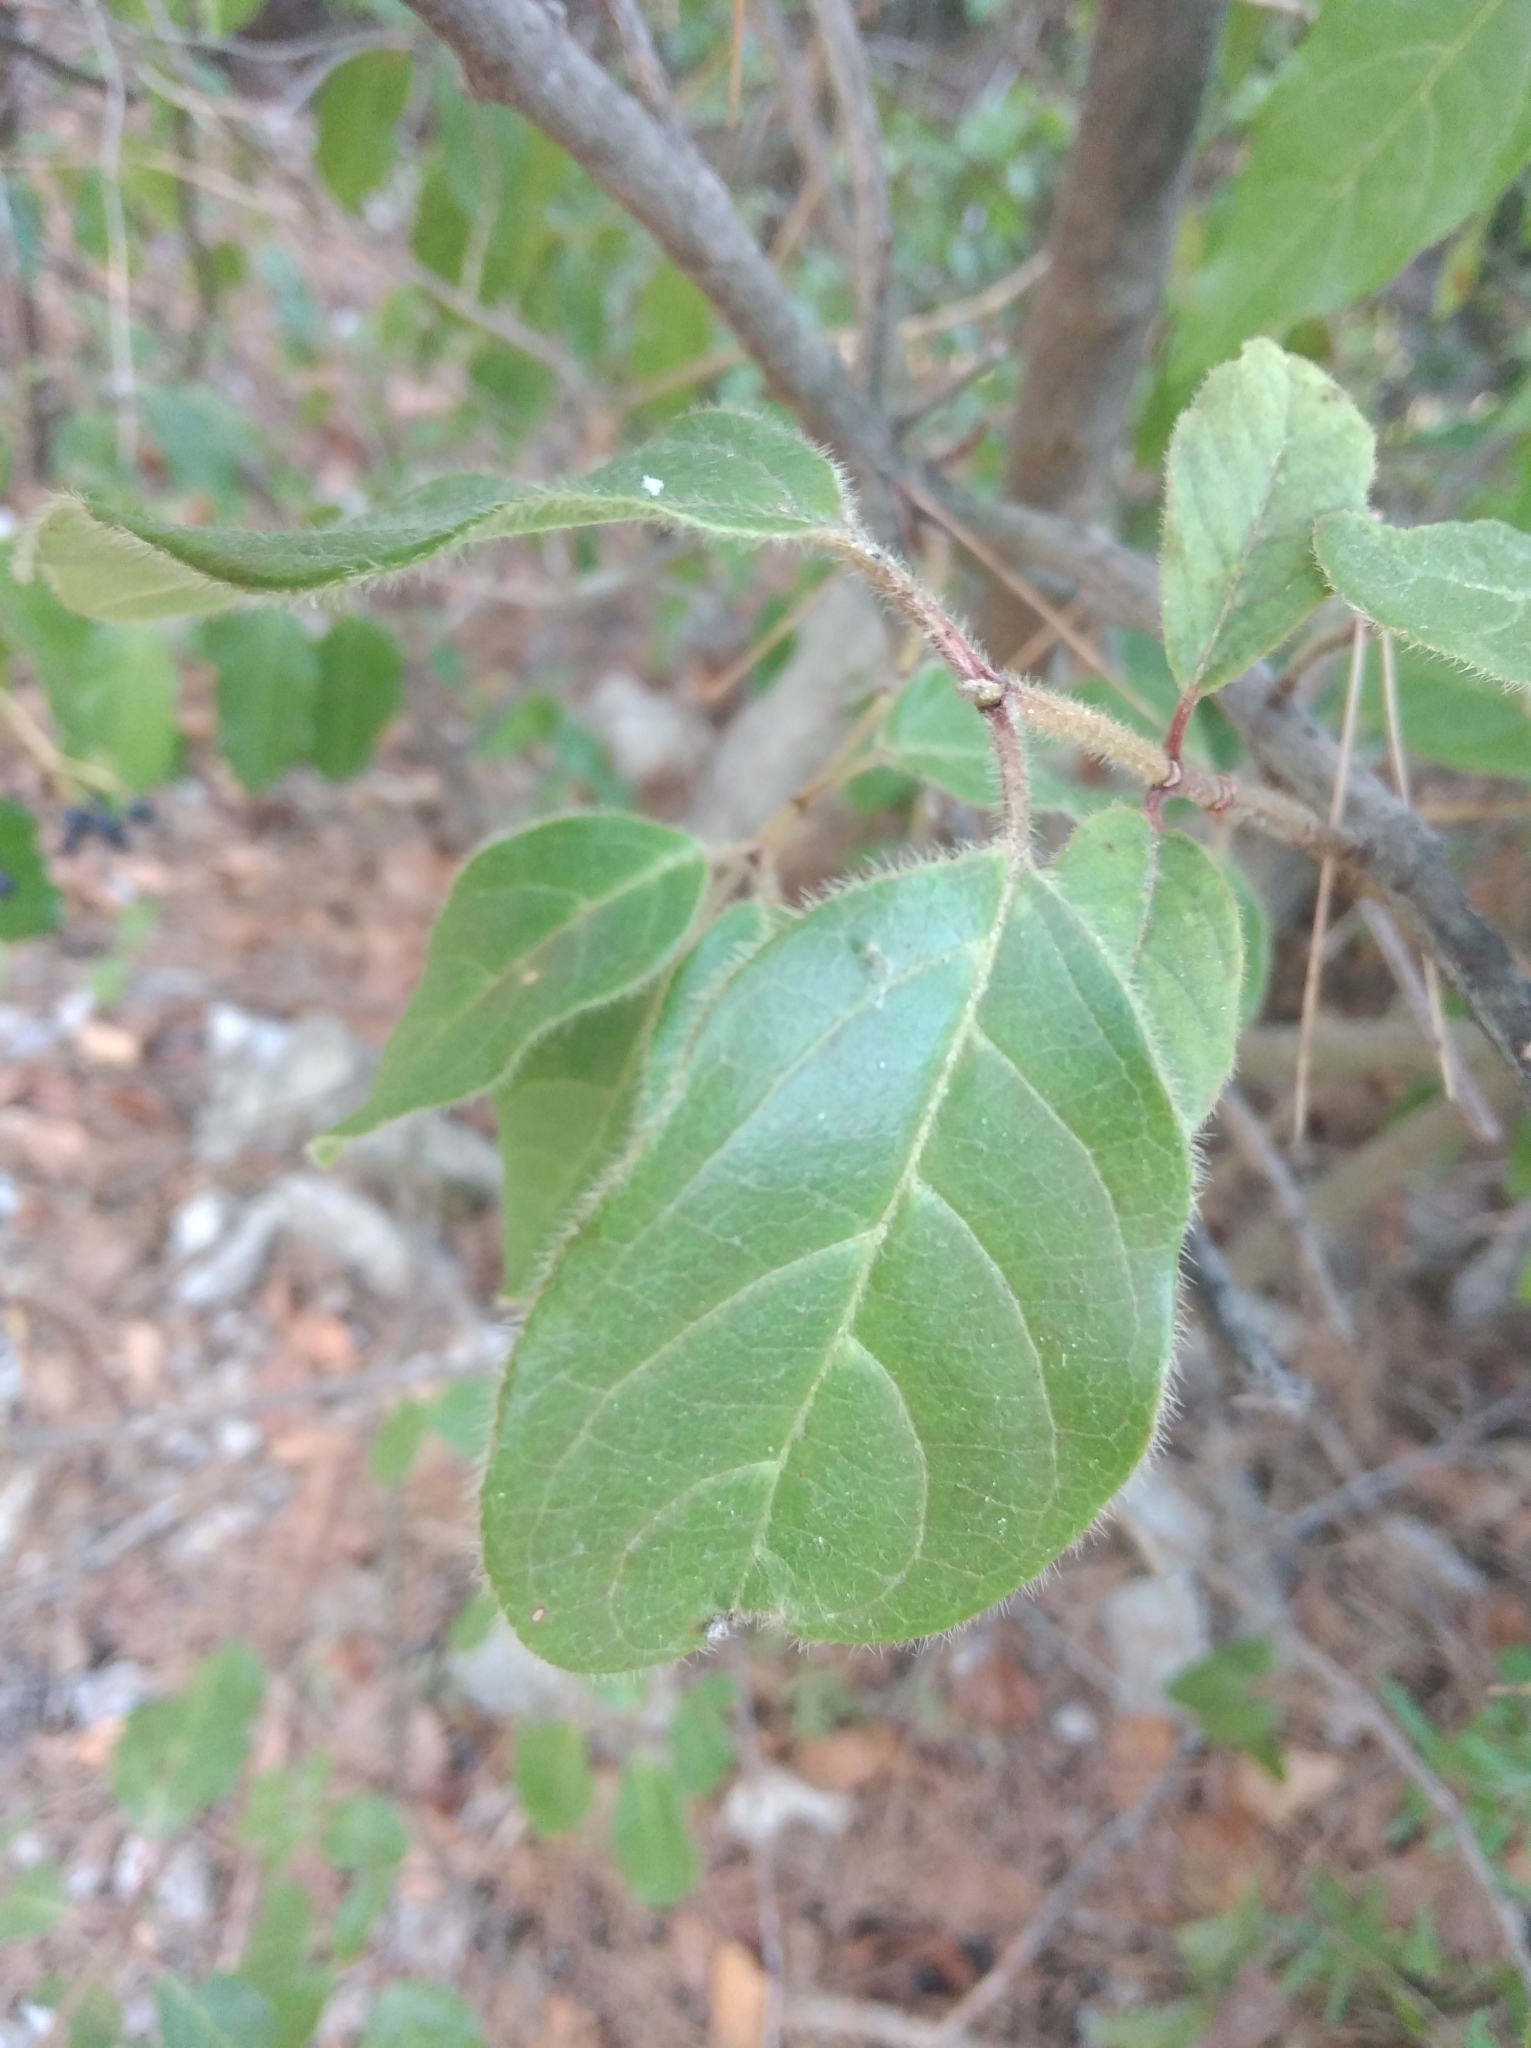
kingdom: Plantae
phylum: Tracheophyta
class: Magnoliopsida
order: Dipsacales
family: Viburnaceae
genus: Viburnum
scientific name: Viburnum tinus
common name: Laurustinus
